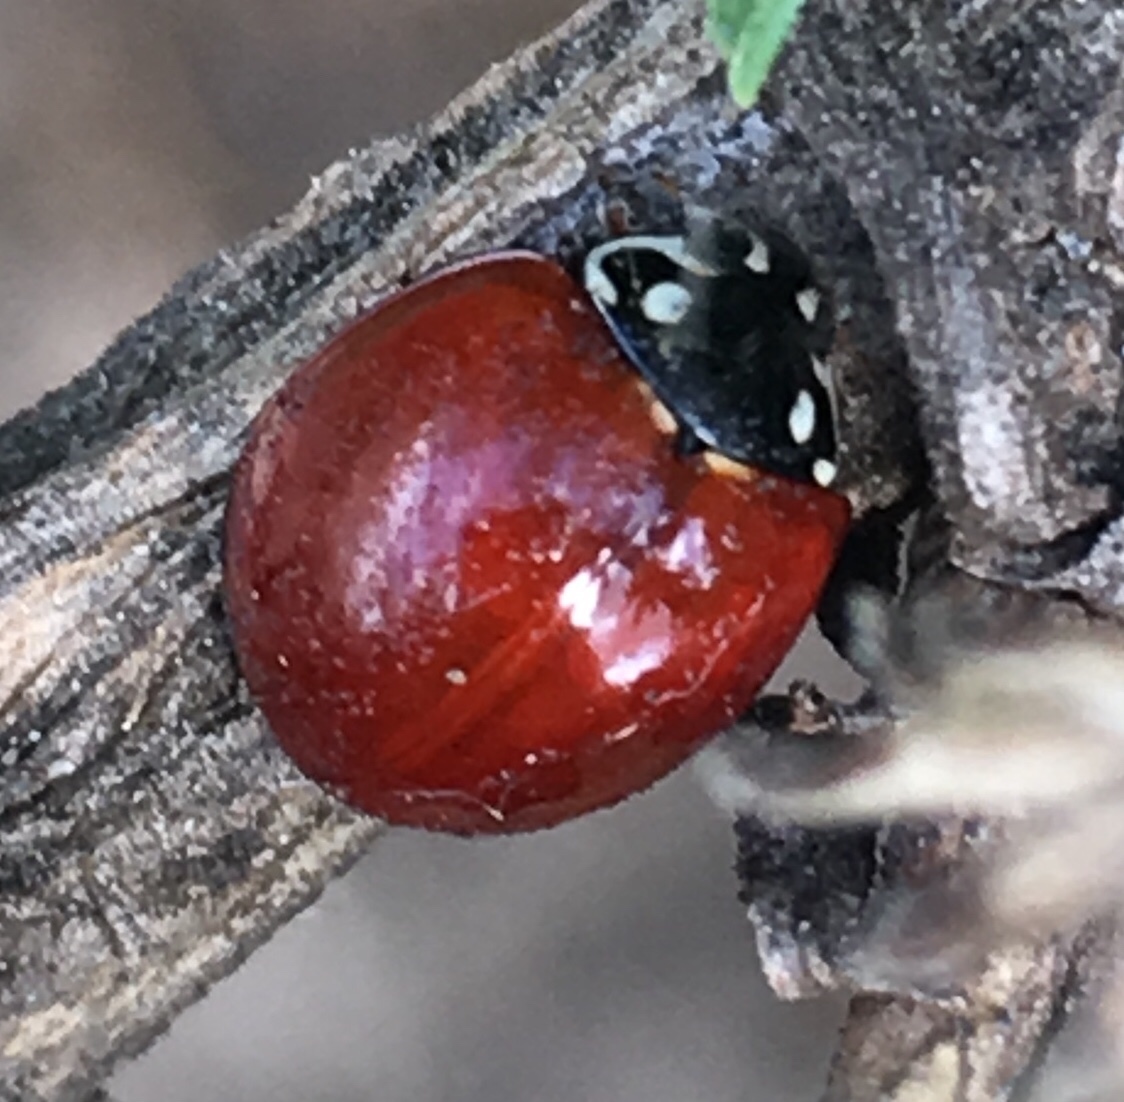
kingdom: Animalia
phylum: Arthropoda
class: Insecta
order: Coleoptera
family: Coccinellidae
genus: Cycloneda
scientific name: Cycloneda sanguinea
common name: Ladybird beetle
